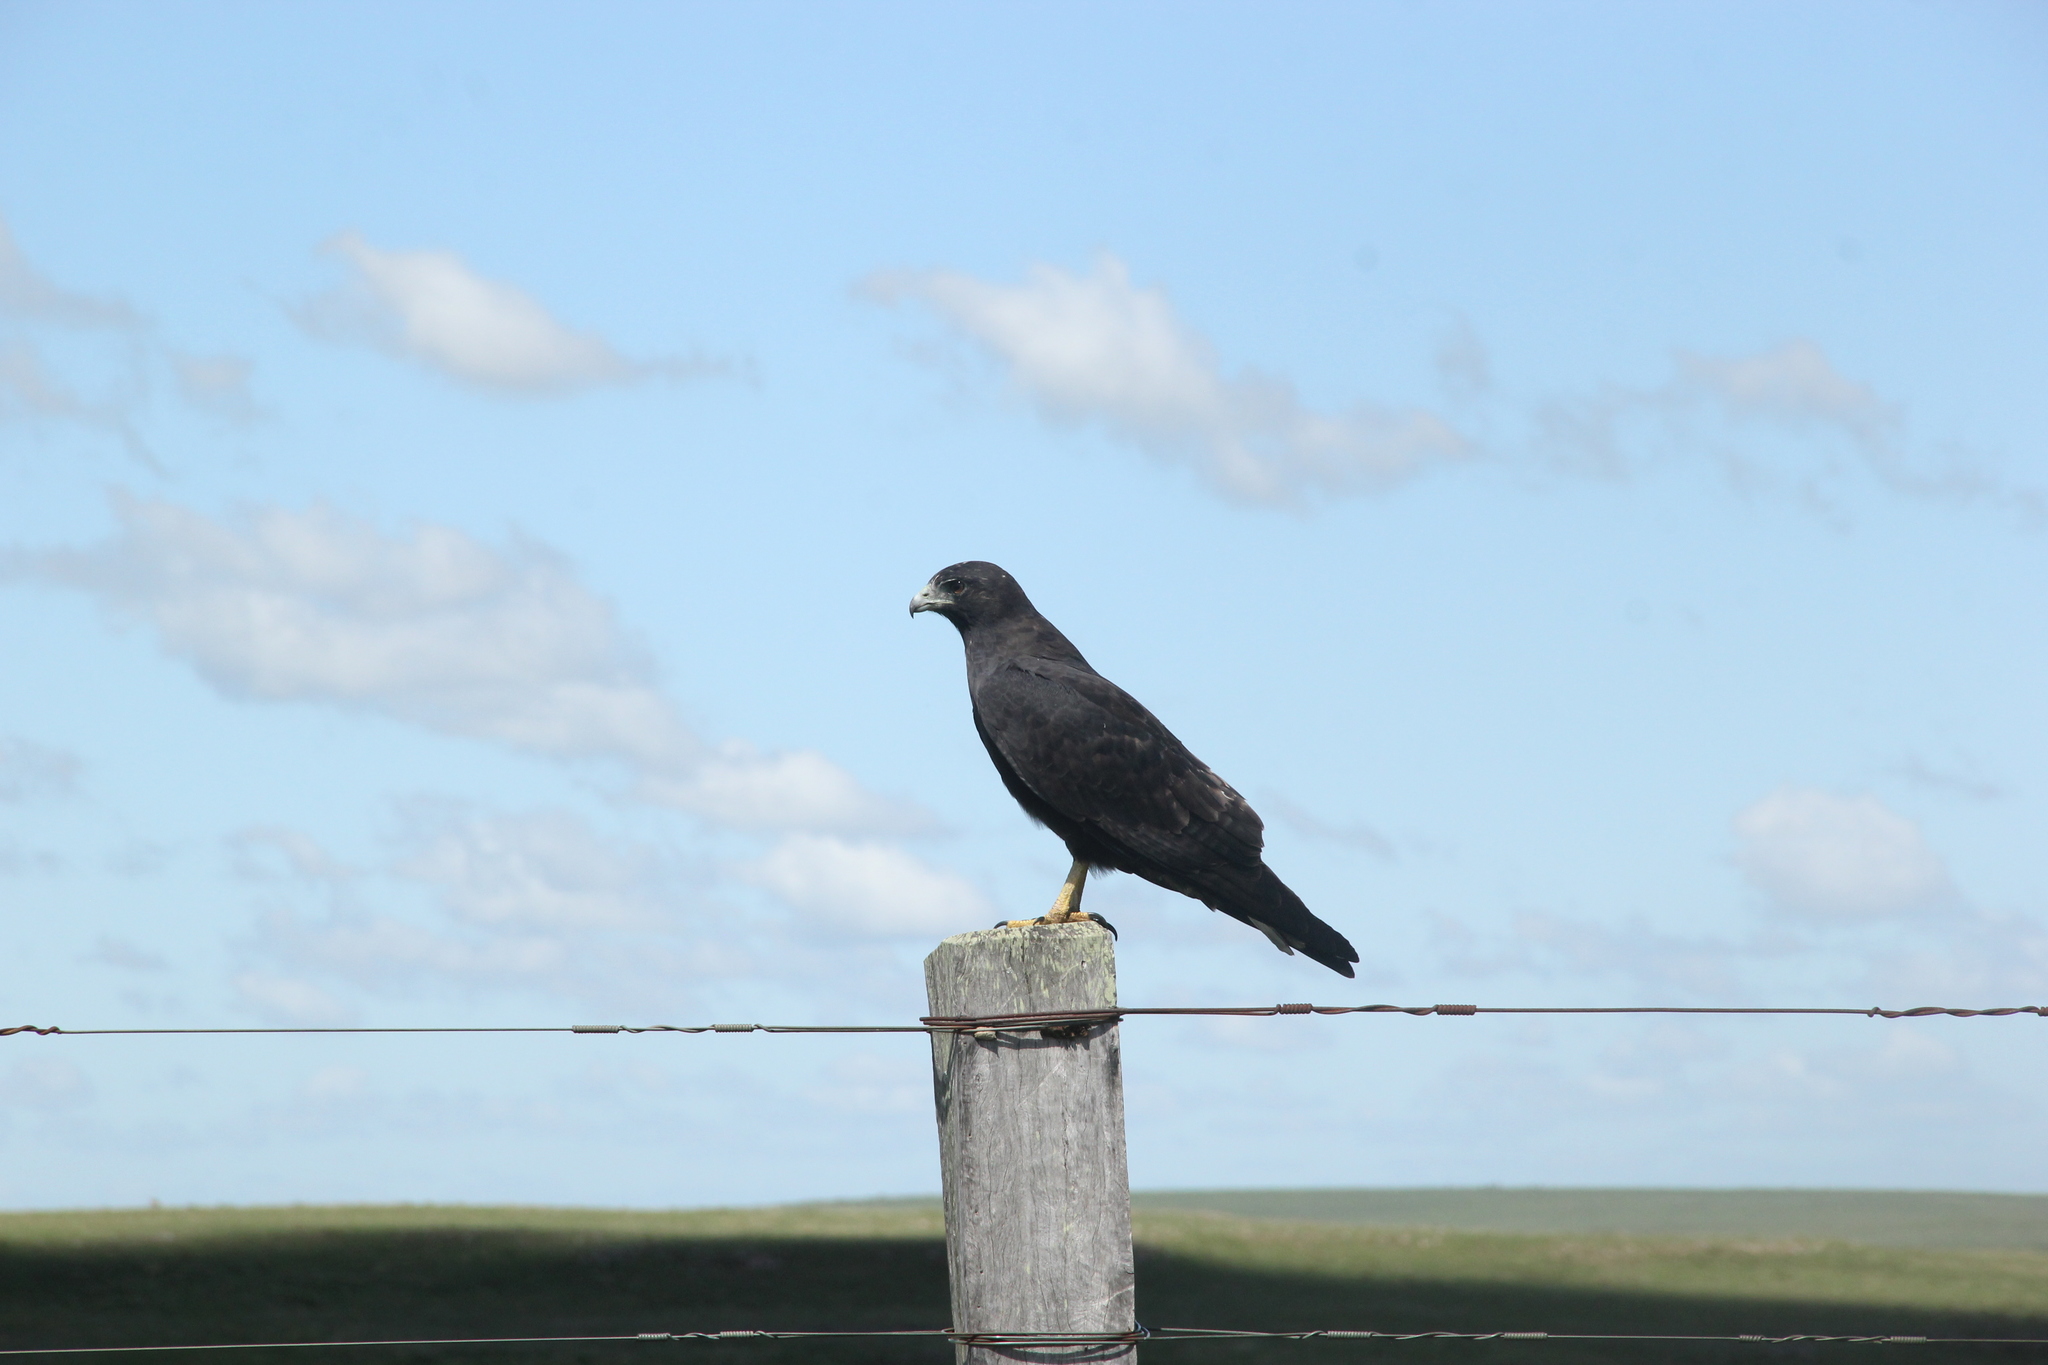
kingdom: Animalia
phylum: Chordata
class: Aves
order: Accipitriformes
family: Accipitridae
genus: Buteo
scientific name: Buteo albicaudatus
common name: White-tailed hawk
